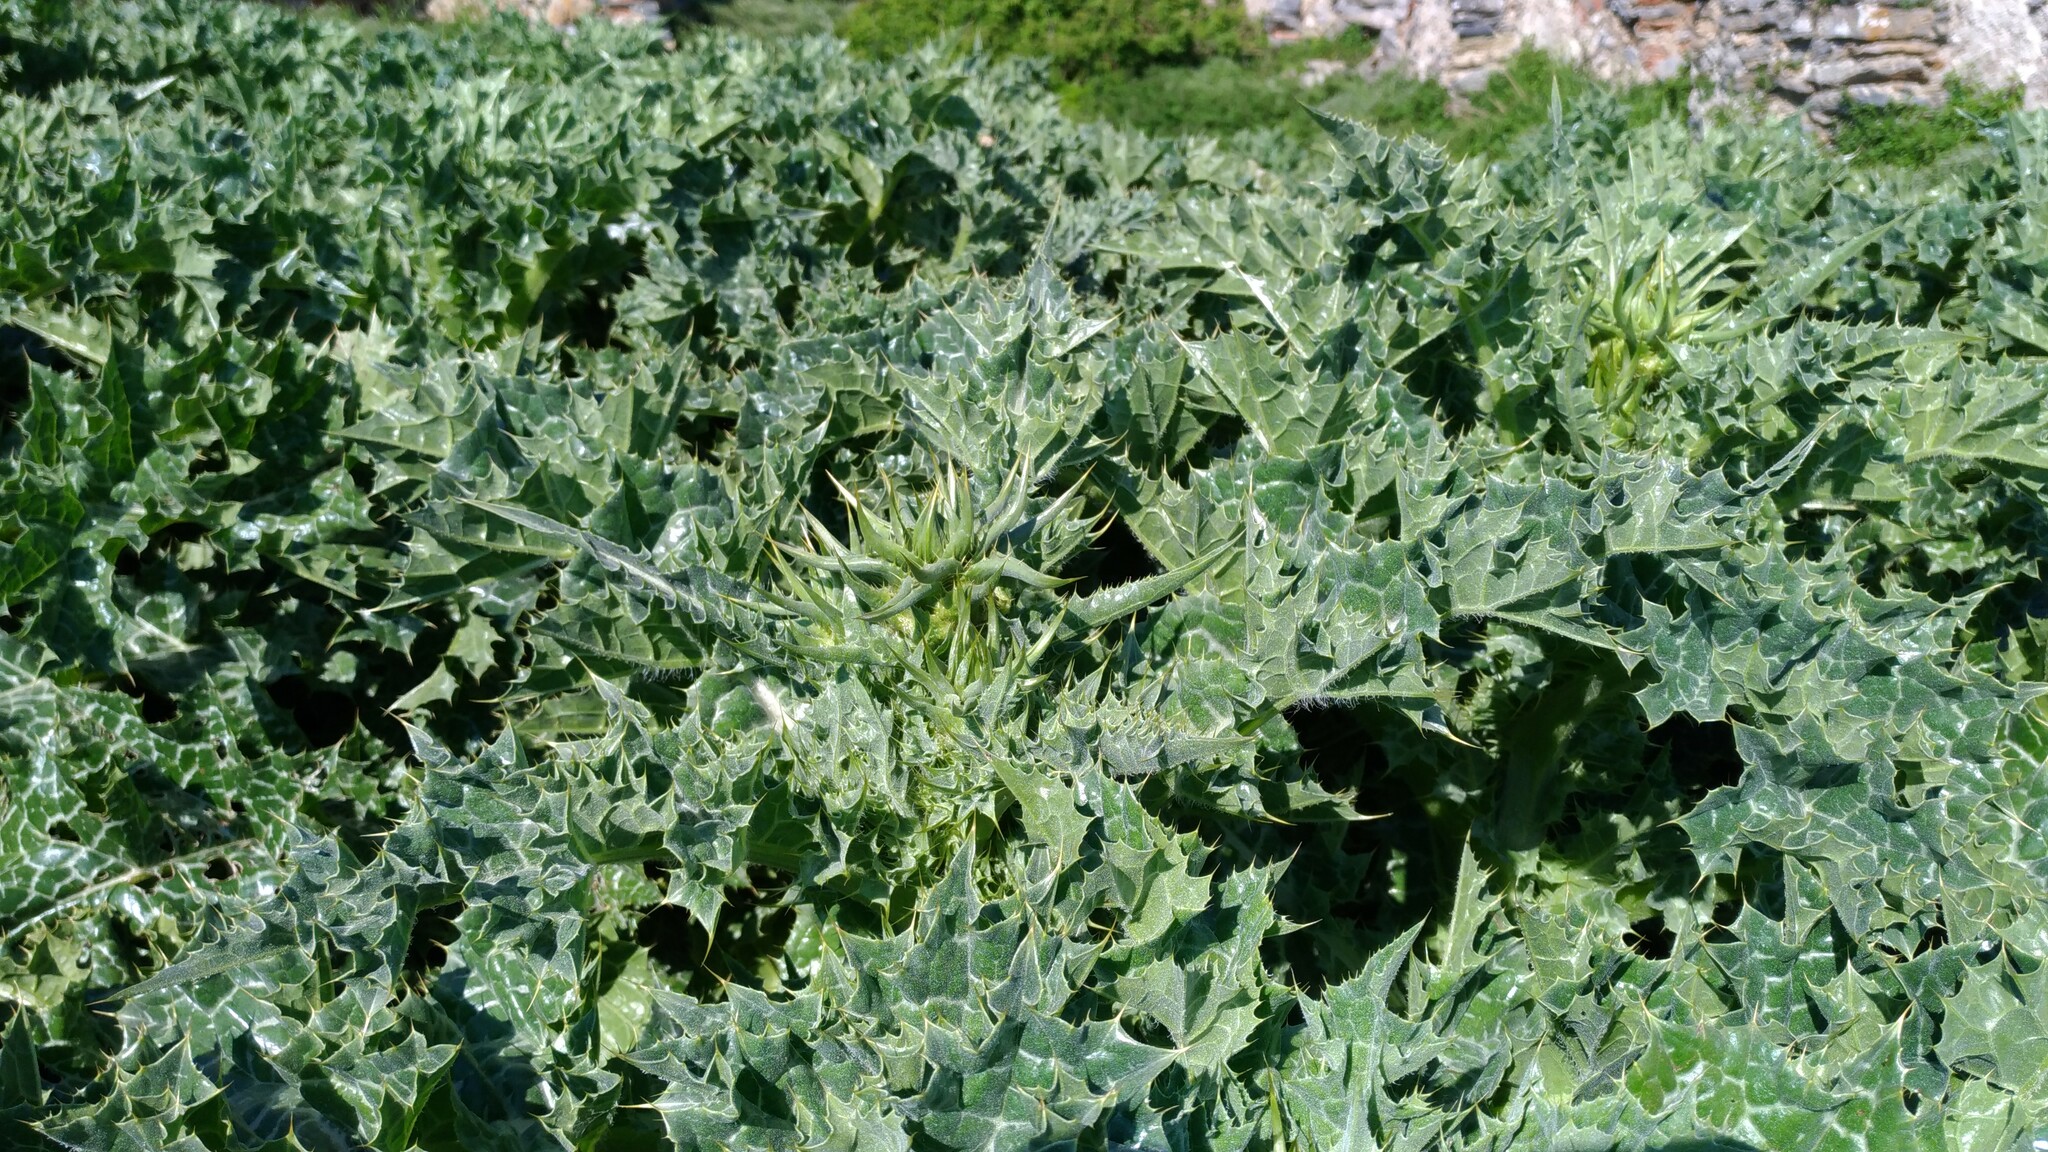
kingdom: Plantae
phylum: Tracheophyta
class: Magnoliopsida
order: Asterales
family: Asteraceae
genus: Silybum
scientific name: Silybum marianum
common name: Milk thistle
